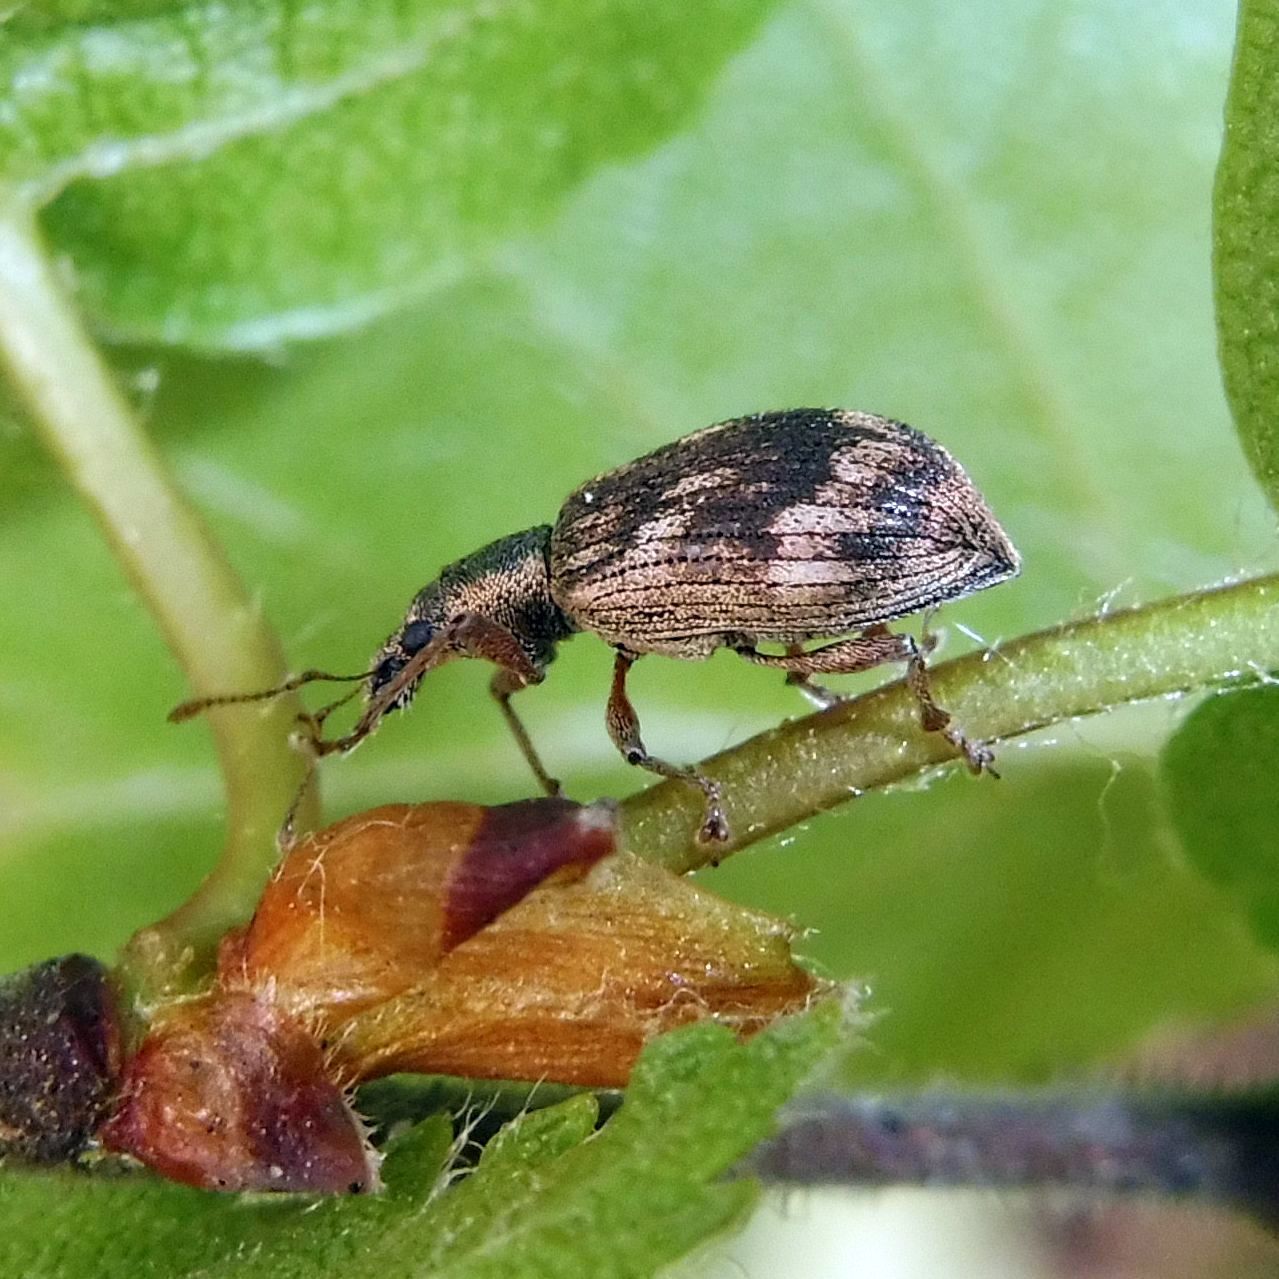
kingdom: Animalia
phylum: Arthropoda
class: Insecta
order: Coleoptera
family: Curculionidae
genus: Polydrusus
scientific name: Polydrusus tereticollis
